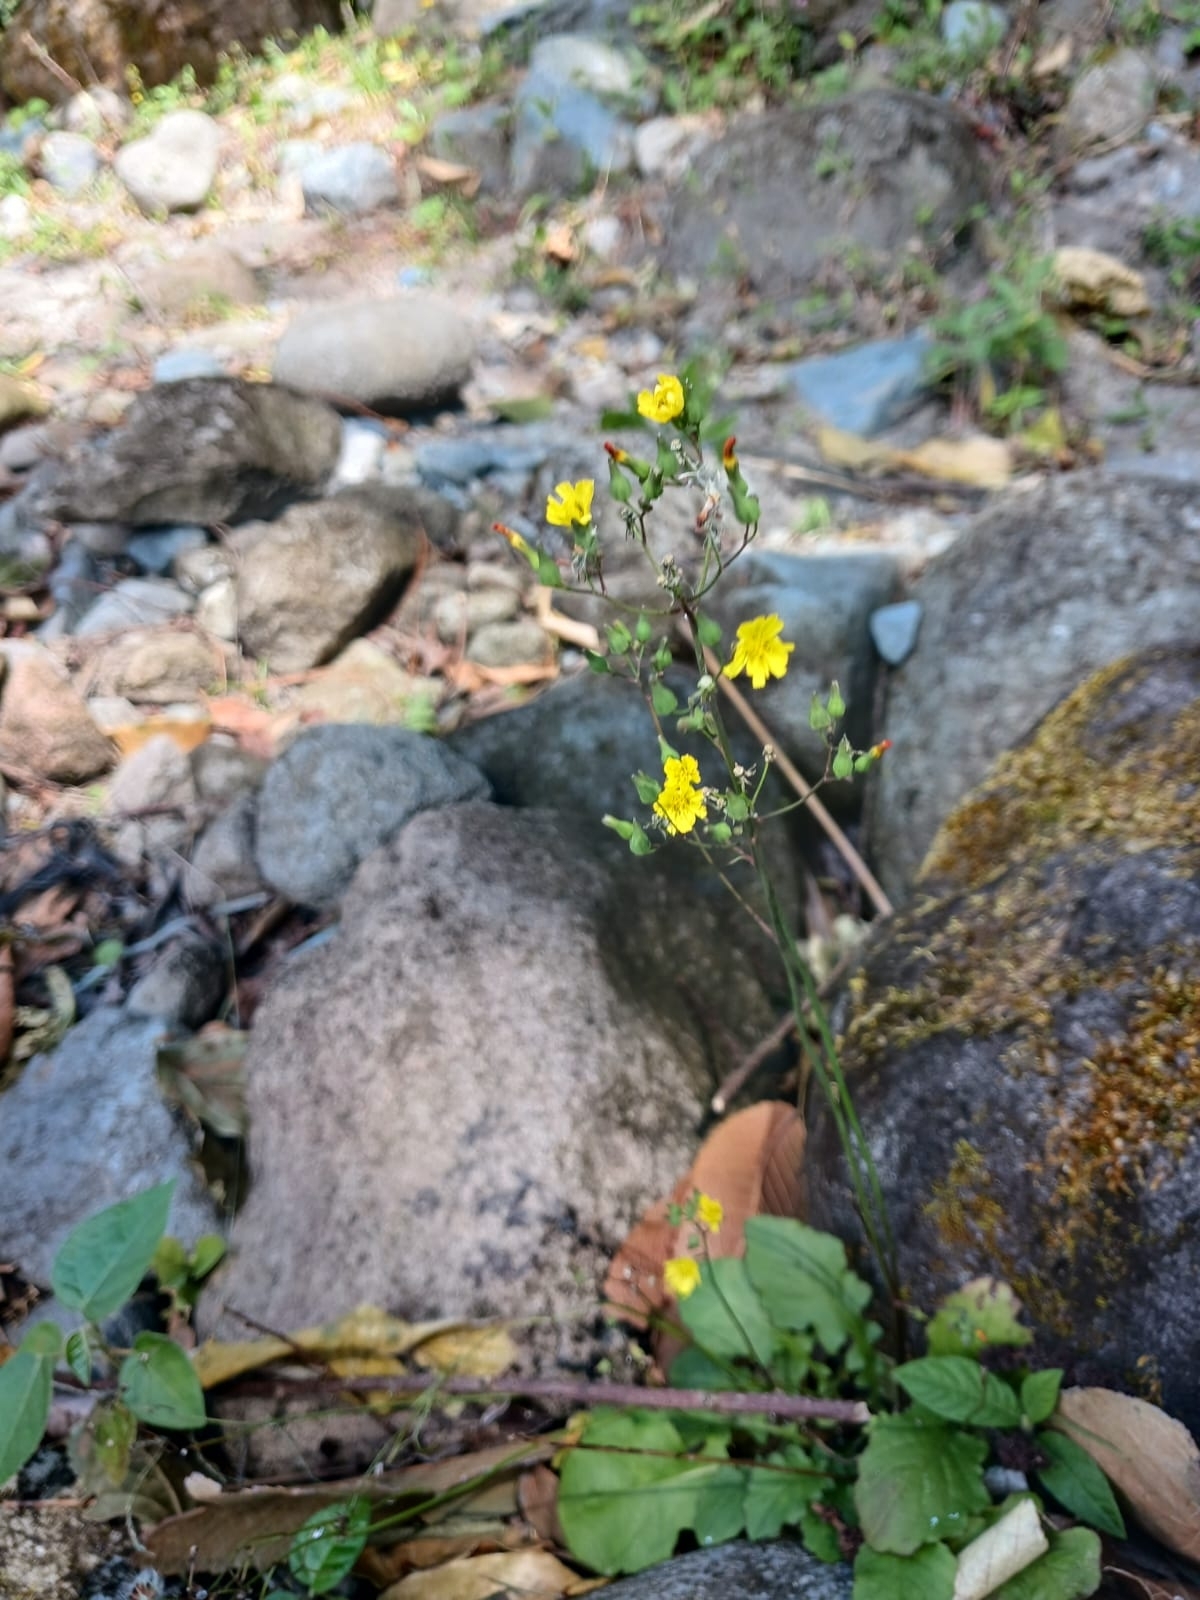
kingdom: Plantae
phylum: Tracheophyta
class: Magnoliopsida
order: Asterales
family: Asteraceae
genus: Youngia
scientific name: Youngia japonica
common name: Oriental false hawksbeard
